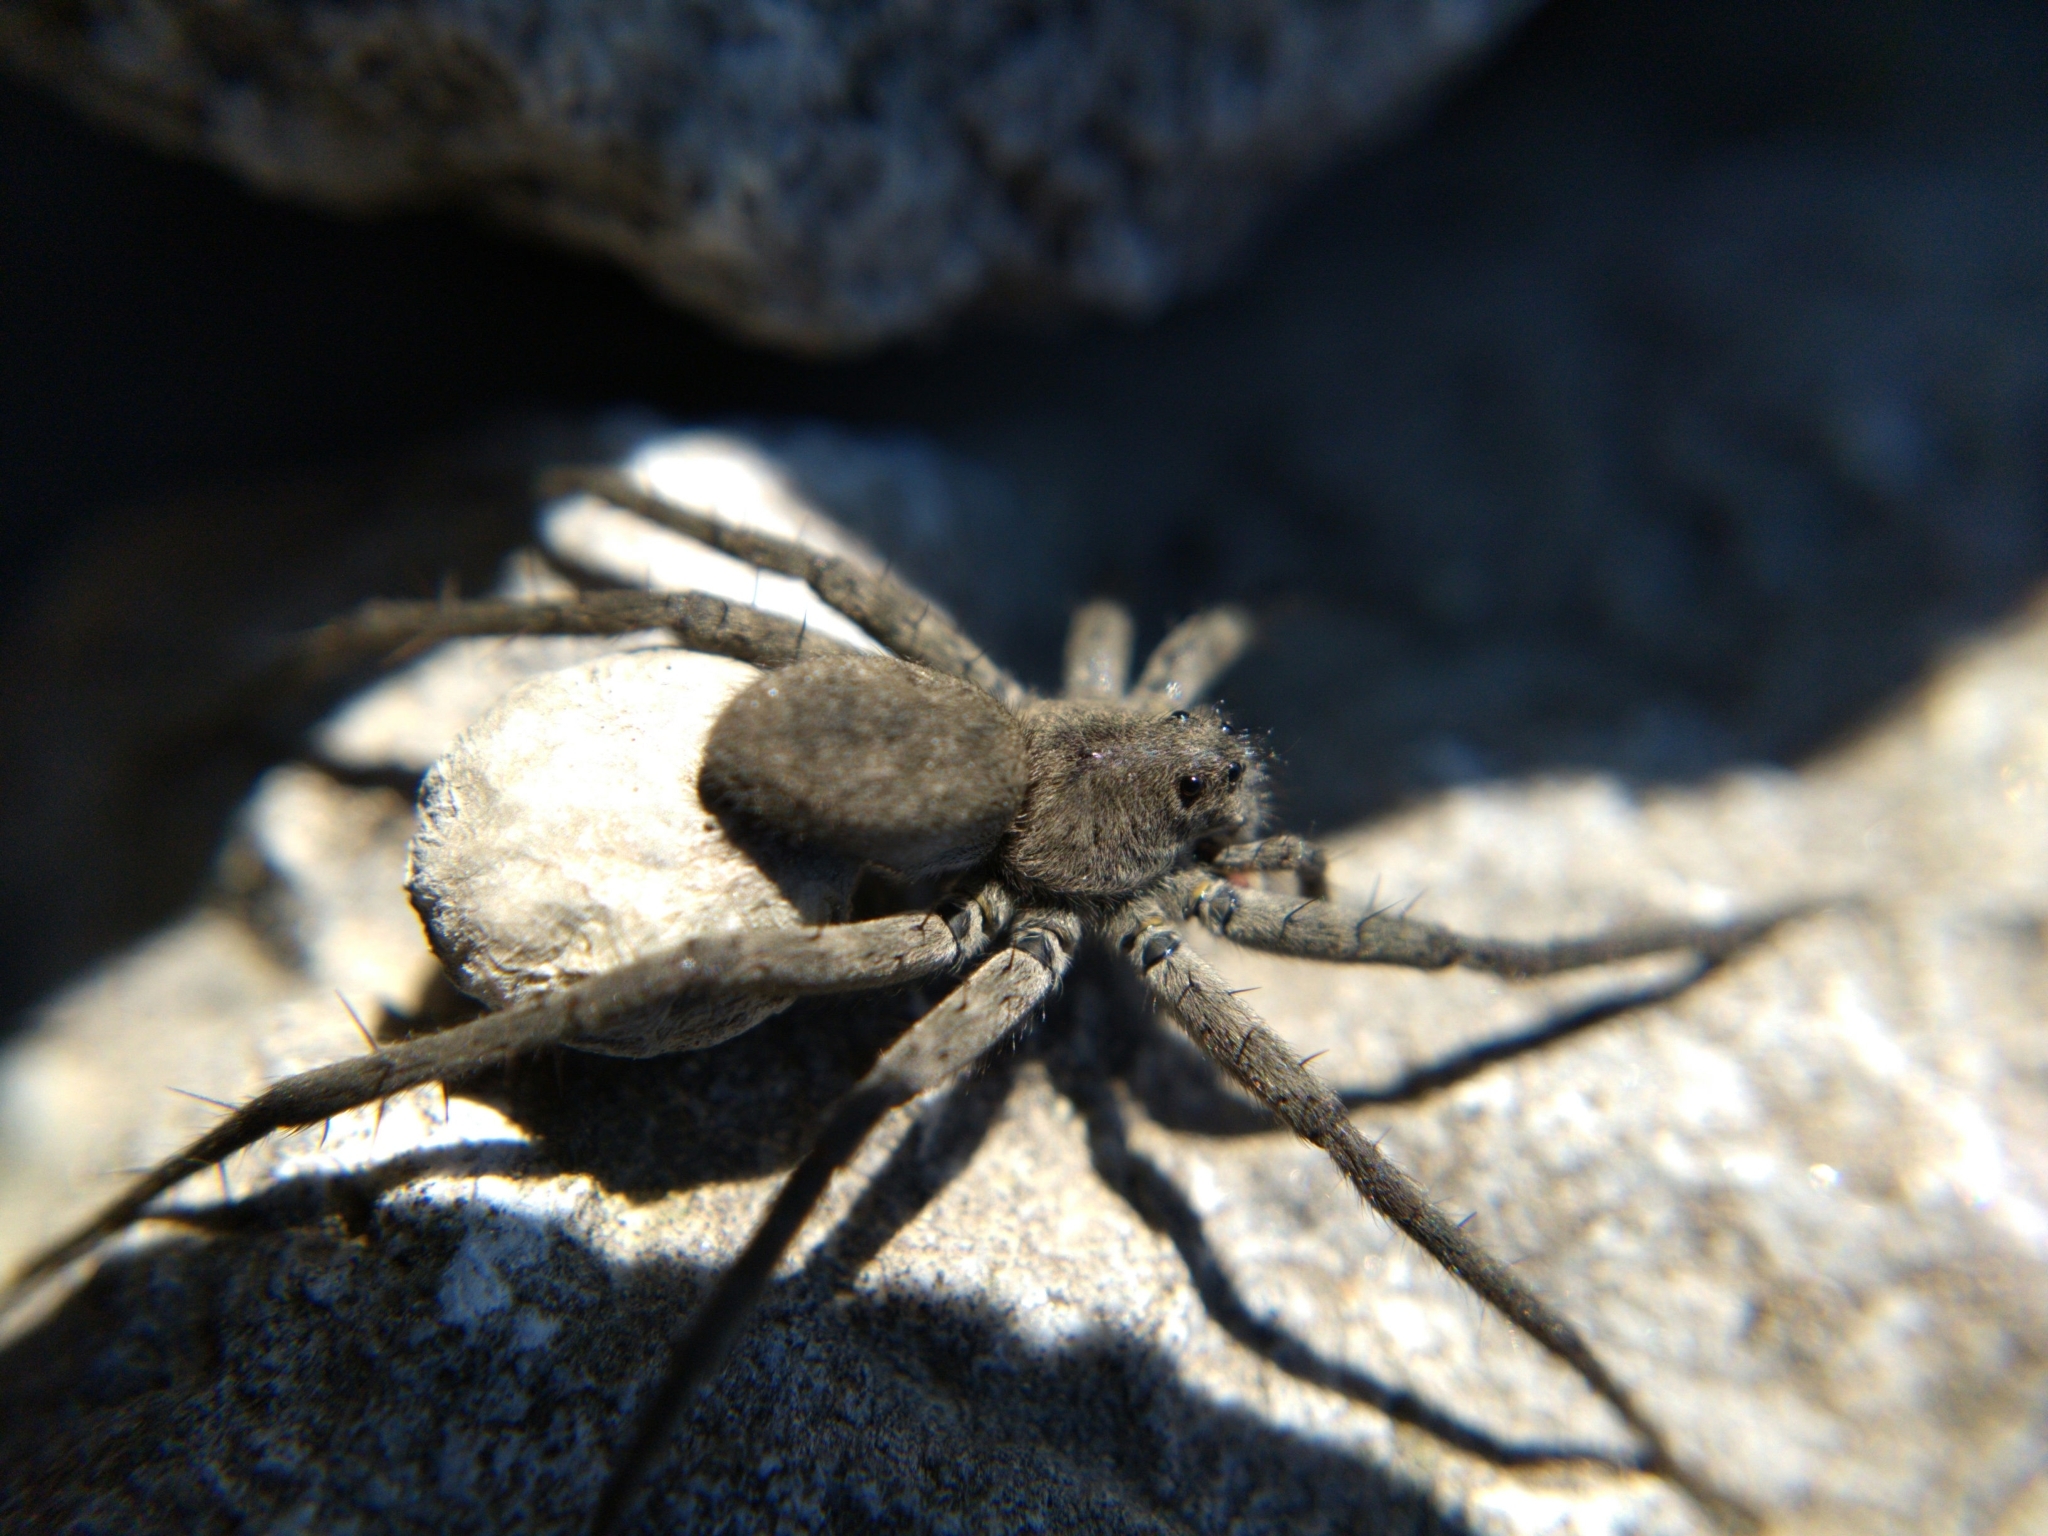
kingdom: Animalia
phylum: Arthropoda
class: Arachnida
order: Araneae
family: Lycosidae
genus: Pardosa
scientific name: Pardosa lapidicina
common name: Stone spider
